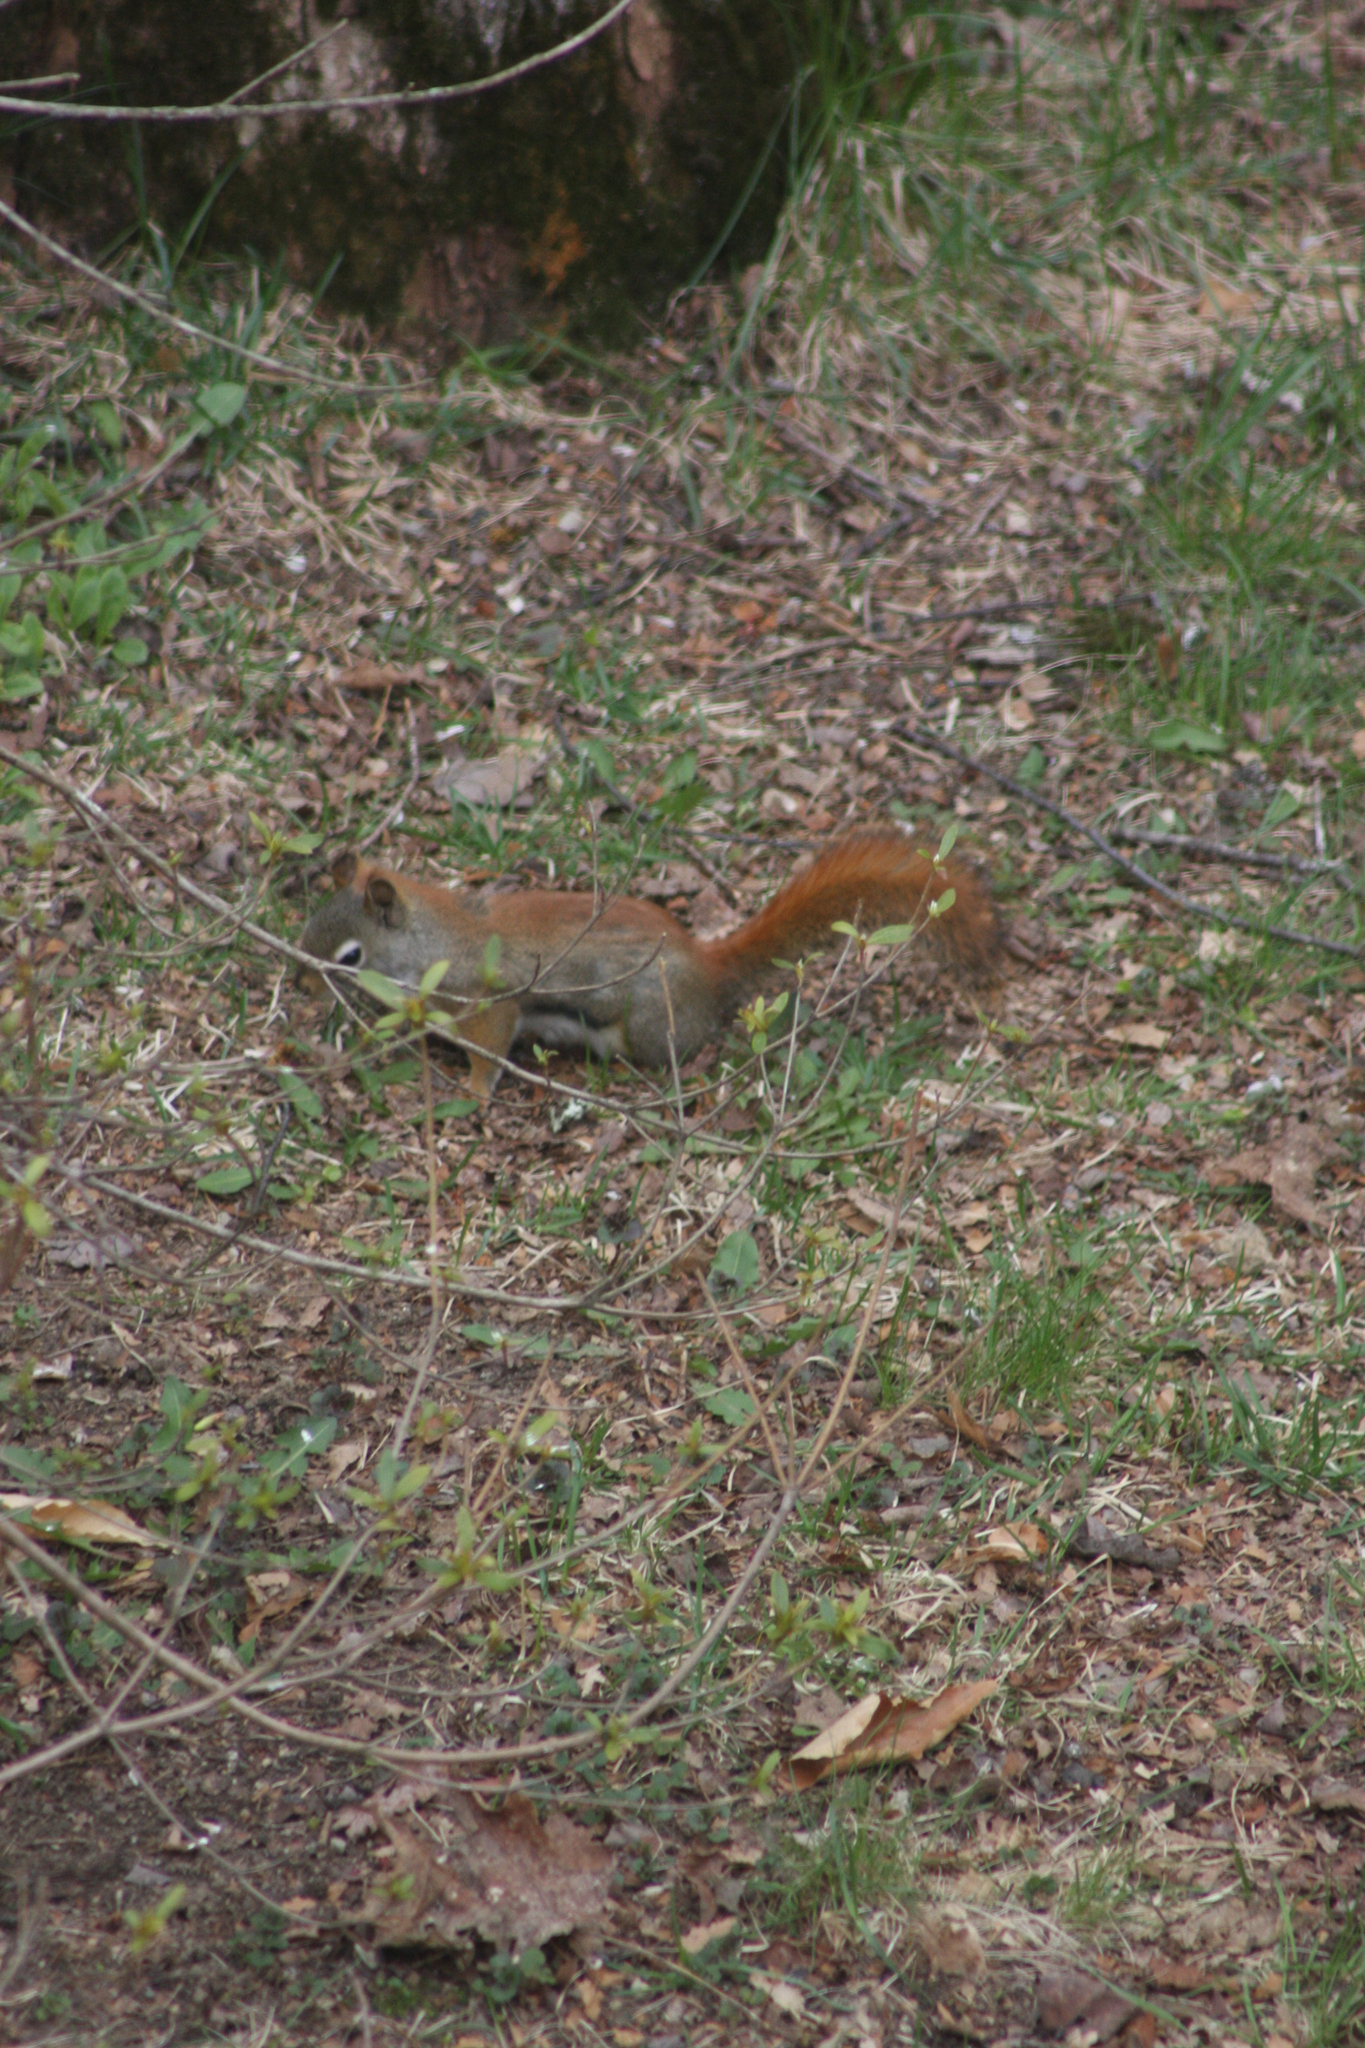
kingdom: Animalia
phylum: Chordata
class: Mammalia
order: Rodentia
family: Sciuridae
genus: Tamiasciurus
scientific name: Tamiasciurus hudsonicus
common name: Red squirrel
